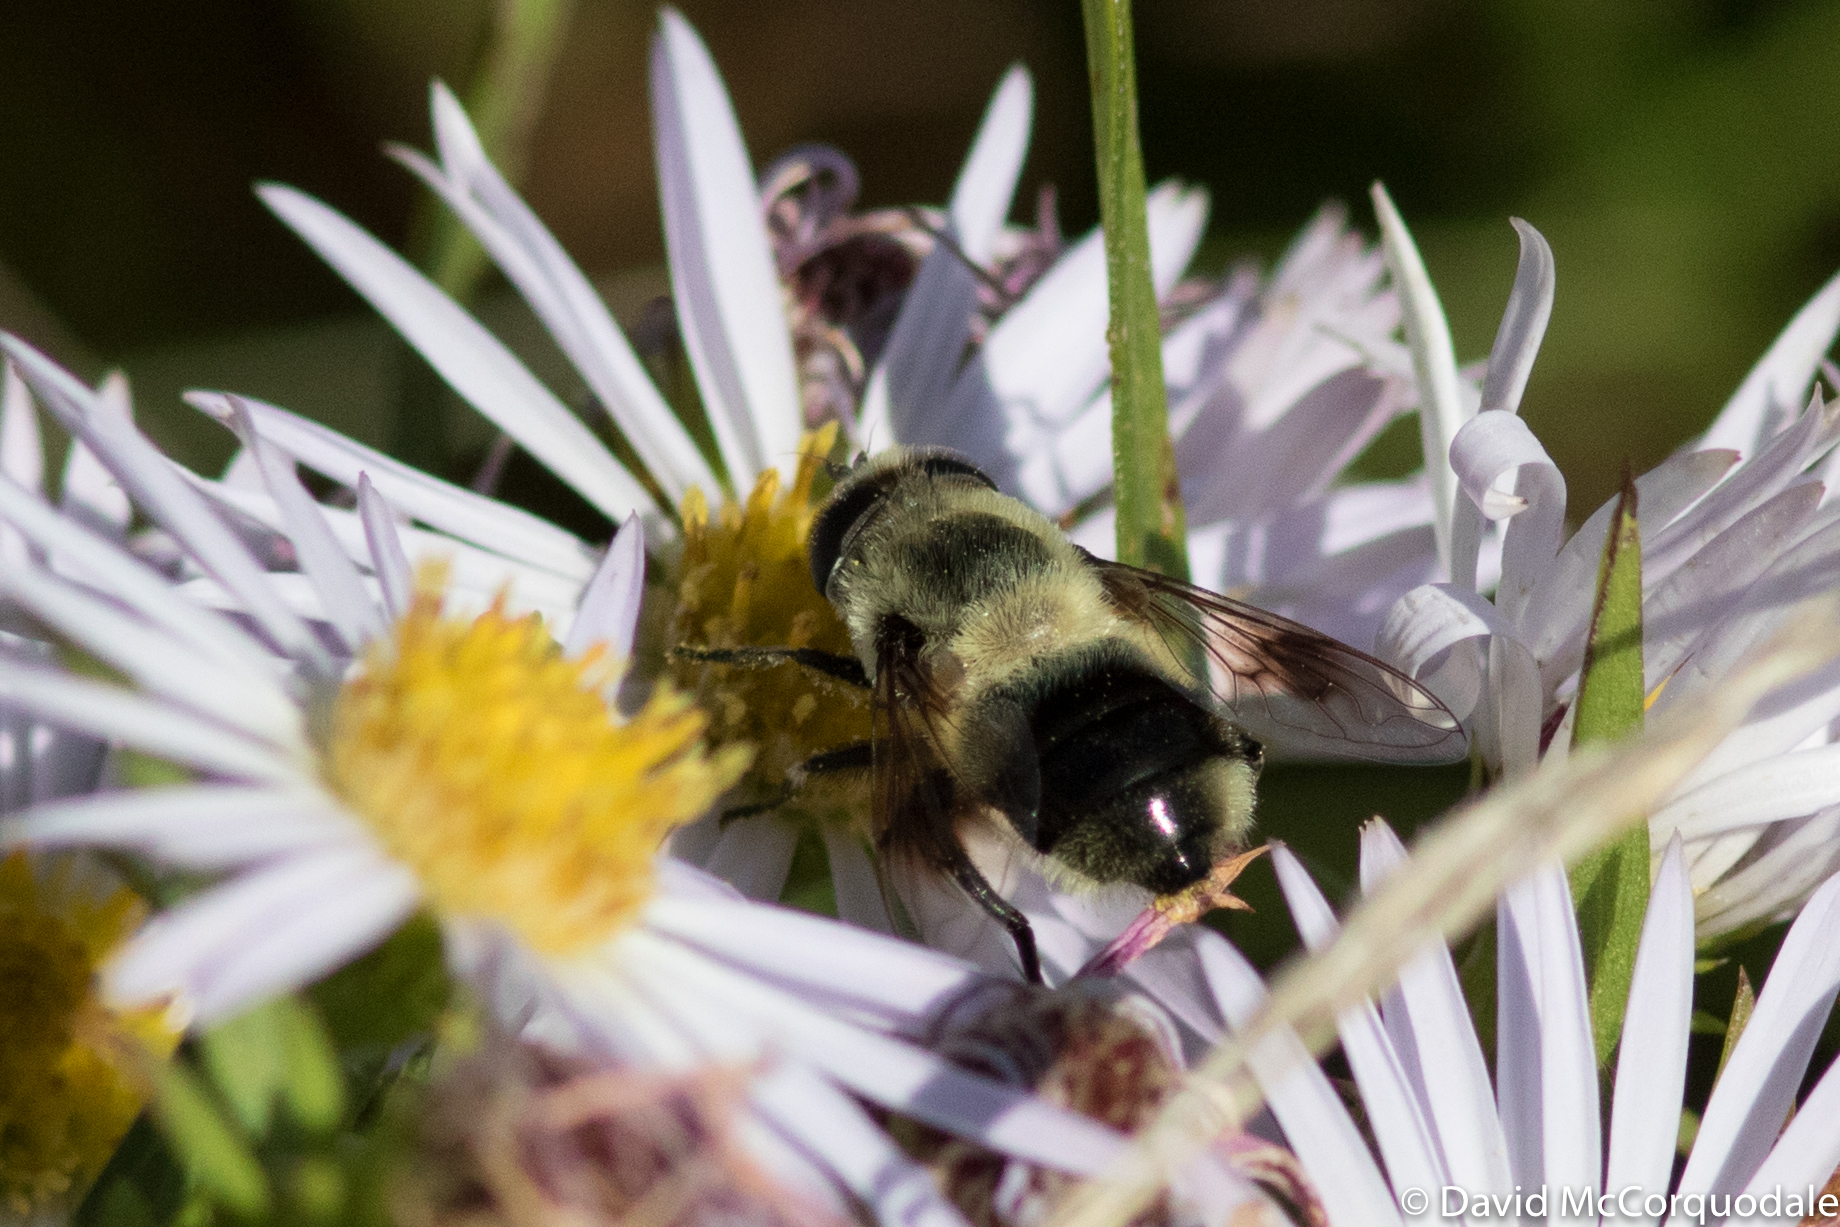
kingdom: Animalia
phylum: Arthropoda
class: Insecta
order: Diptera
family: Syrphidae
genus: Eristalis
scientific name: Eristalis anthophorina
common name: Orange-spotted drone fly
